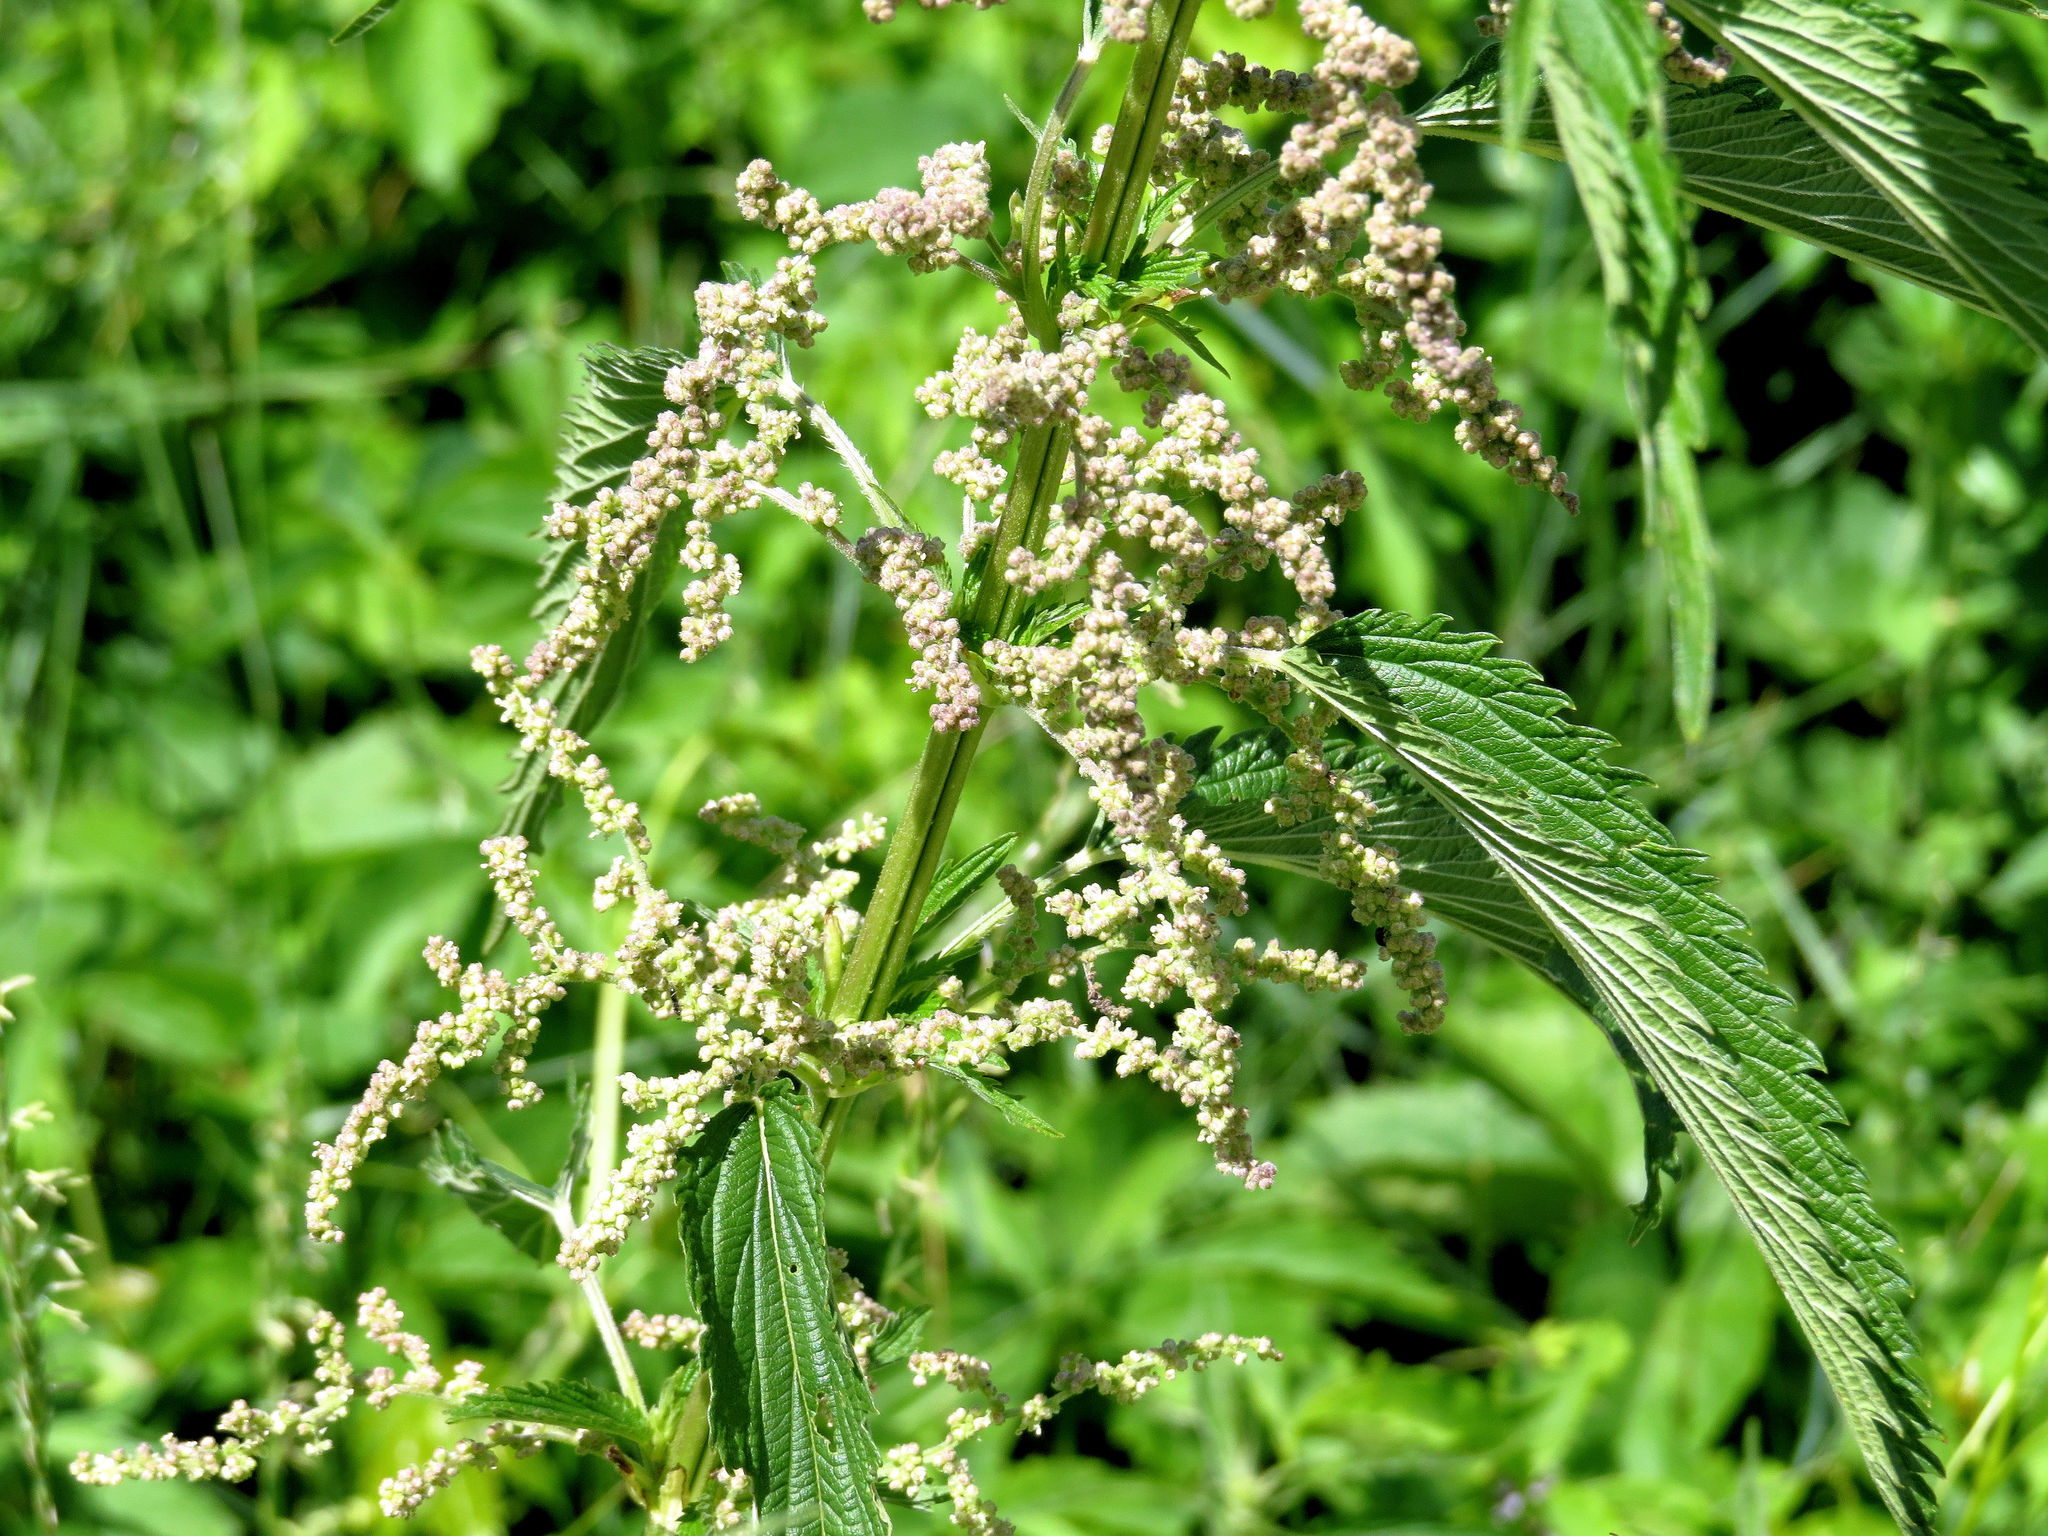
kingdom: Plantae
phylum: Tracheophyta
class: Magnoliopsida
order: Rosales
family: Urticaceae
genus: Urtica
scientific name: Urtica dioica
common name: Common nettle
